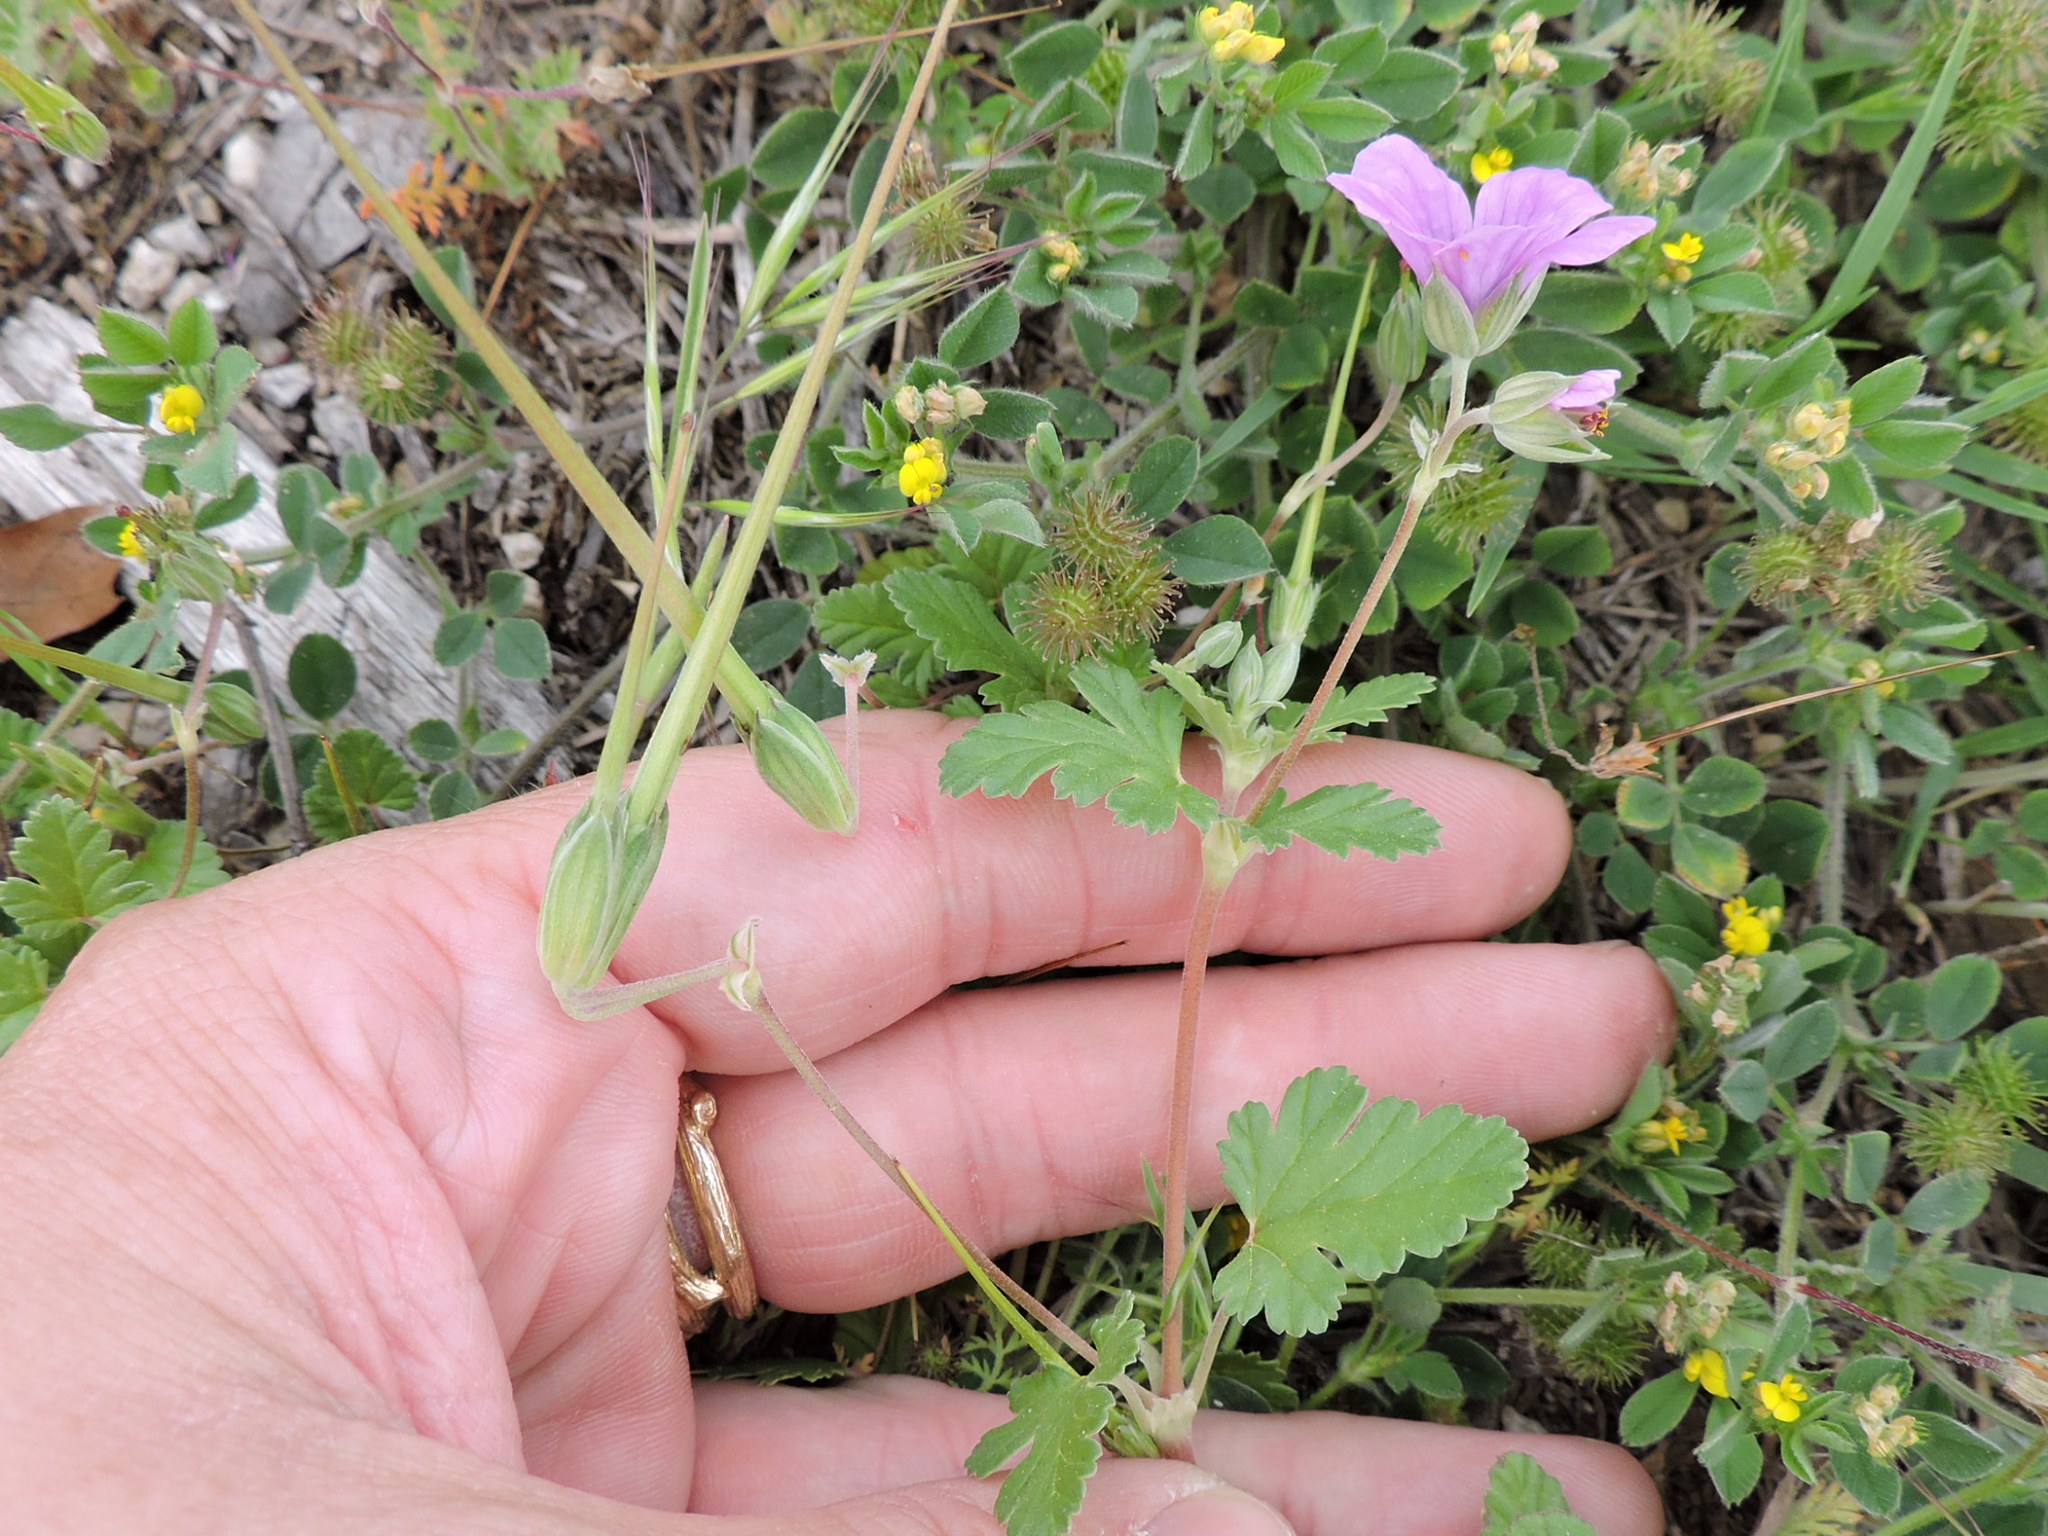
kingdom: Plantae
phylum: Tracheophyta
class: Magnoliopsida
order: Geraniales
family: Geraniaceae
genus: Erodium
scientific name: Erodium texanum
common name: Texas stork's-bill
